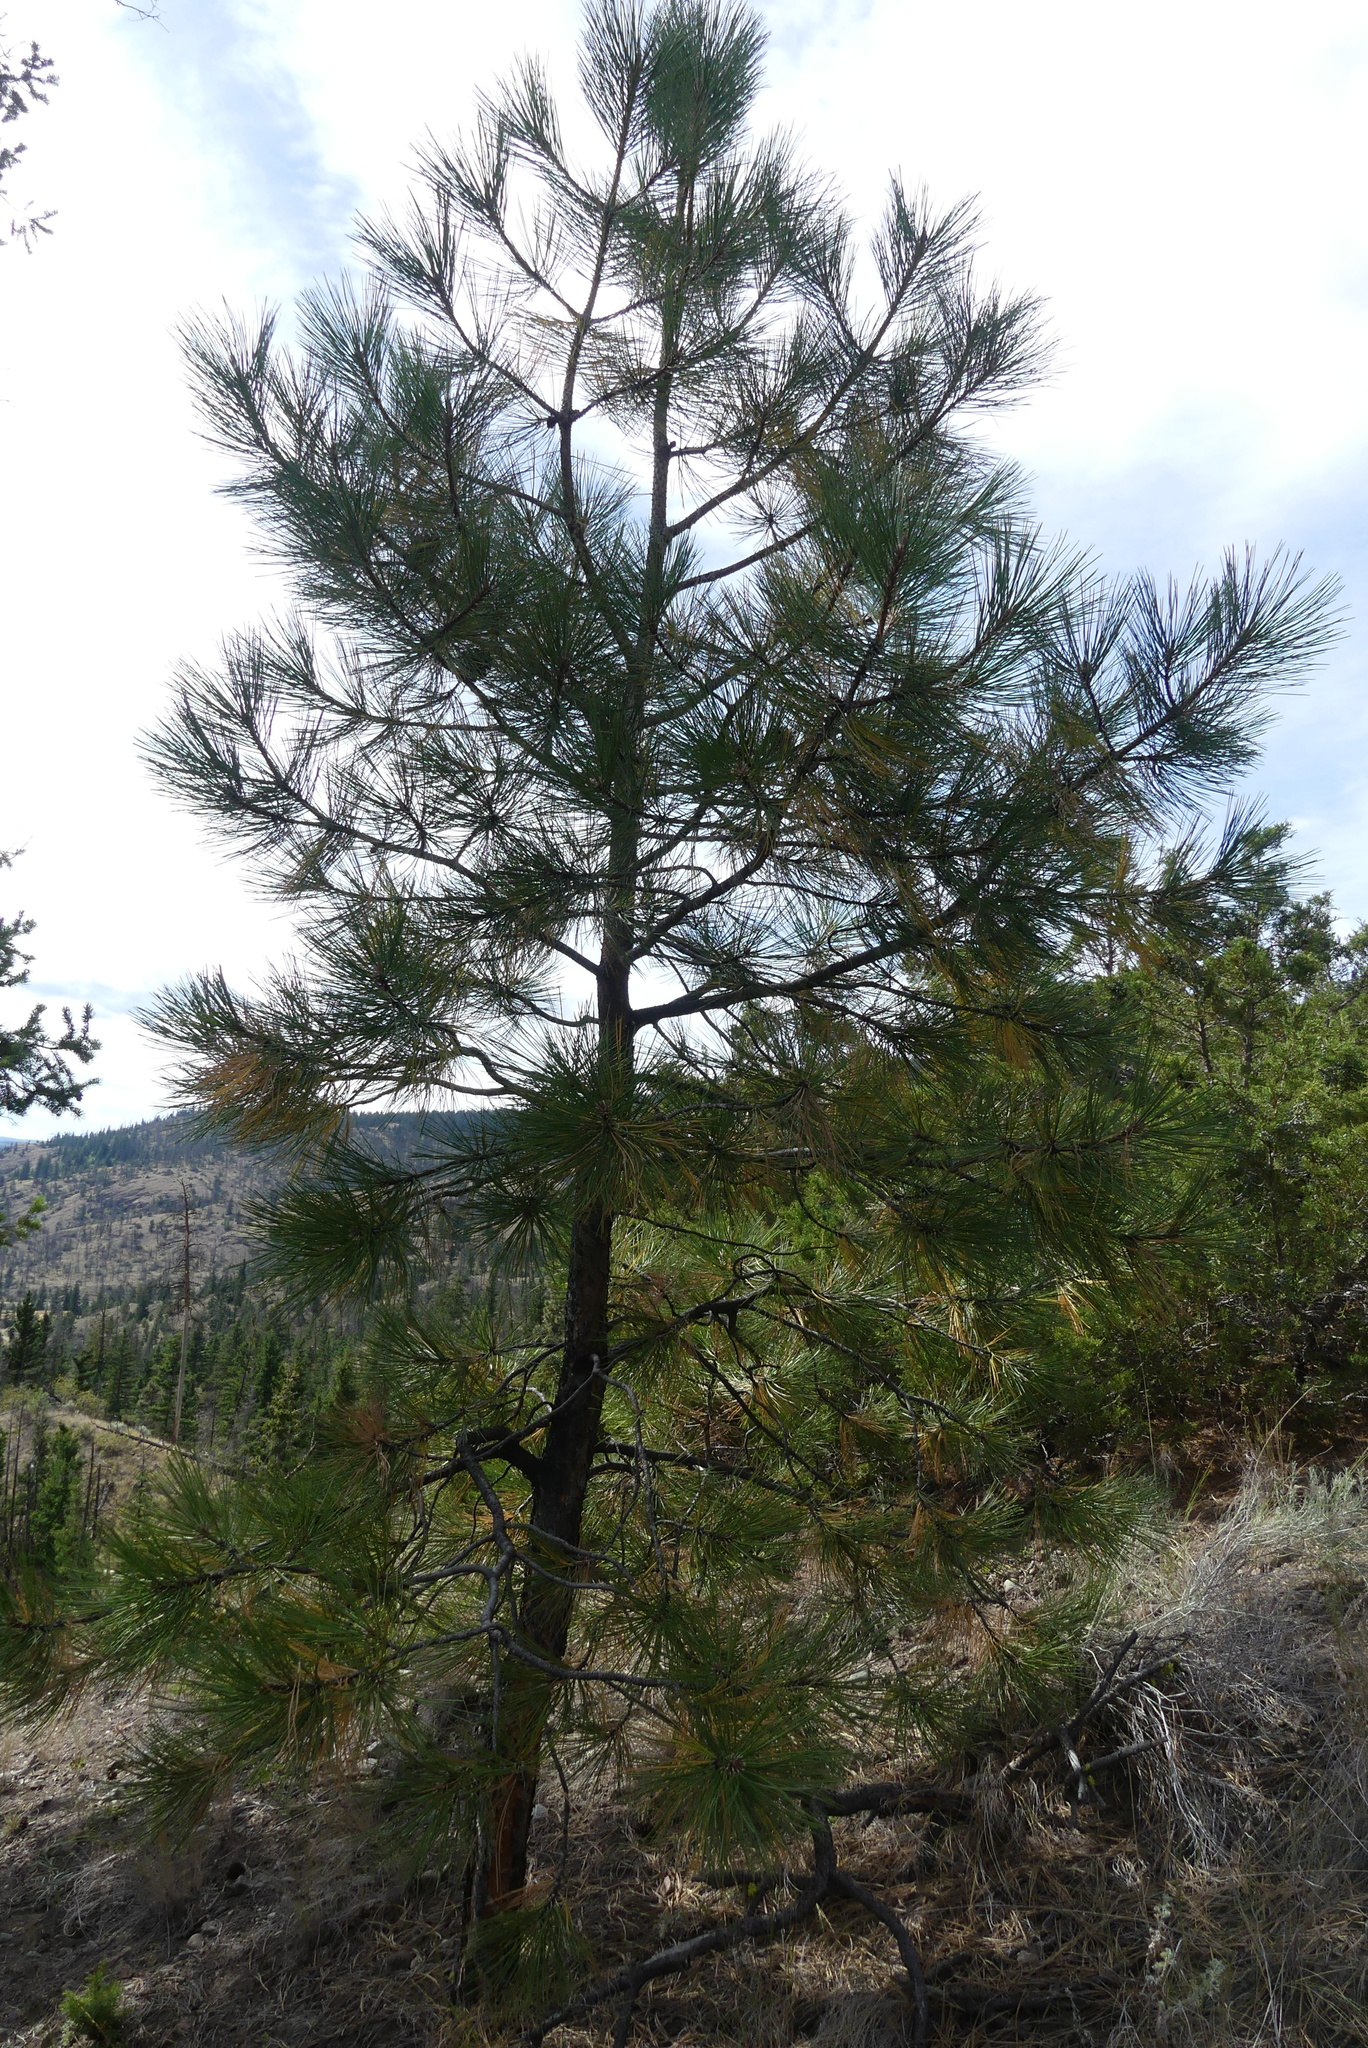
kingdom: Plantae
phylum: Tracheophyta
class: Pinopsida
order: Pinales
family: Pinaceae
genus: Pinus
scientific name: Pinus ponderosa
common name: Western yellow-pine
